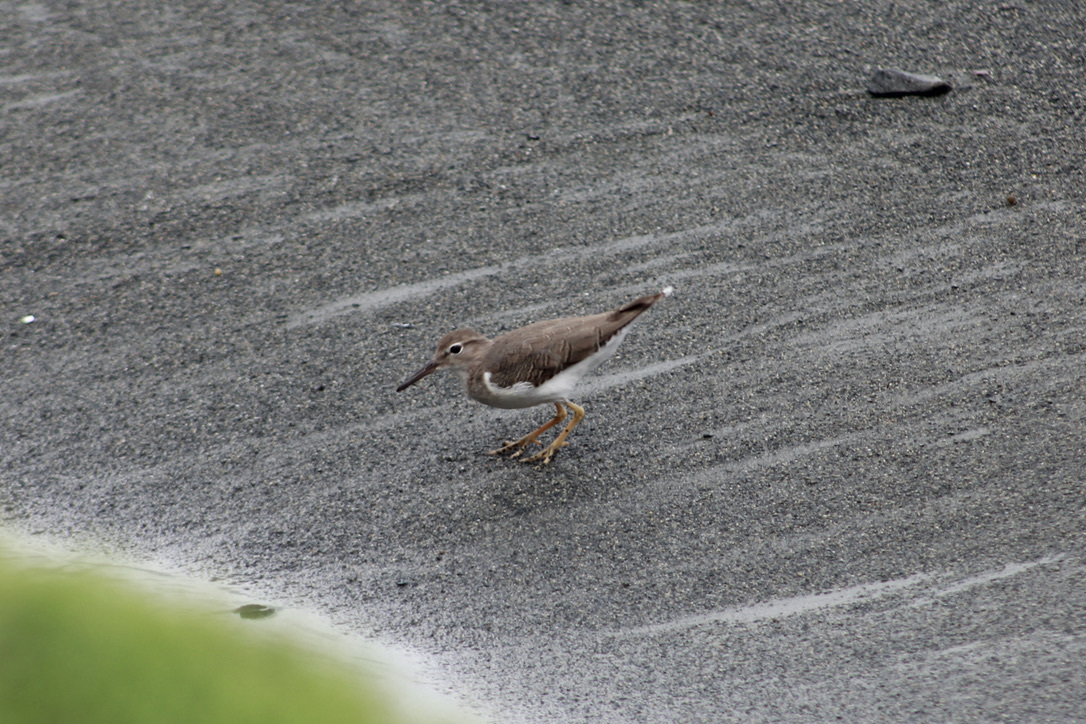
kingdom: Animalia
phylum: Chordata
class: Aves
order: Charadriiformes
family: Scolopacidae
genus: Actitis
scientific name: Actitis macularius
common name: Spotted sandpiper
